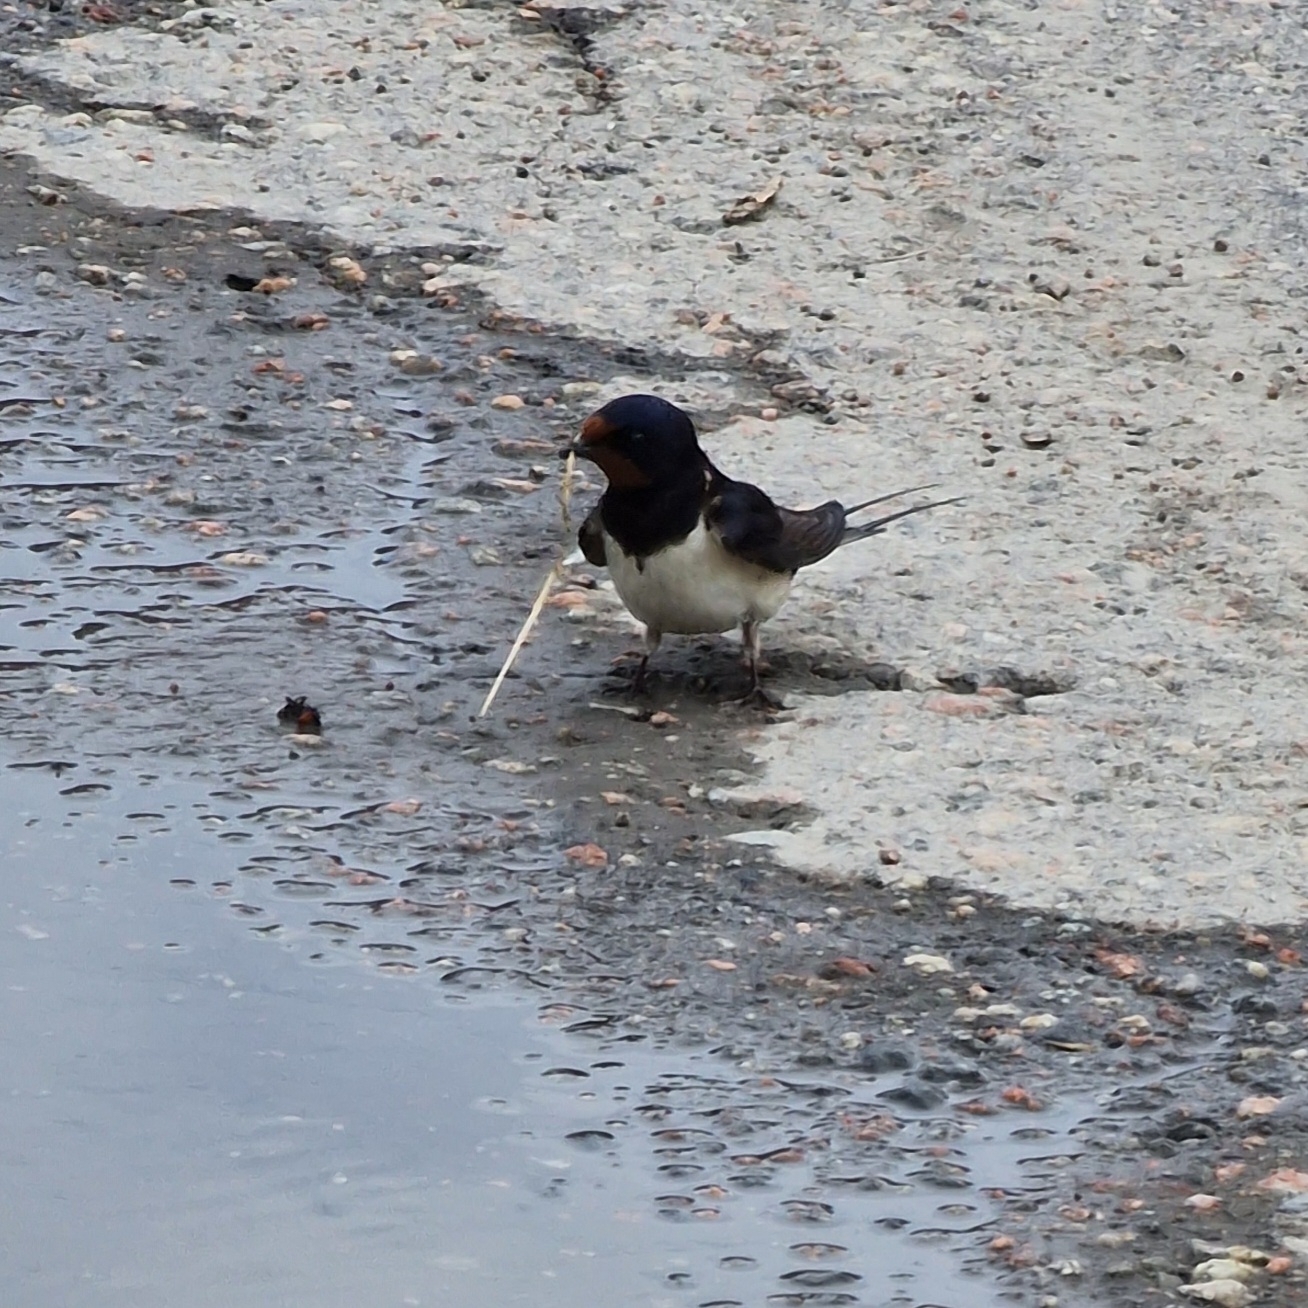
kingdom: Animalia
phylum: Chordata
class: Aves
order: Passeriformes
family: Hirundinidae
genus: Hirundo
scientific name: Hirundo rustica
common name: Barn swallow
